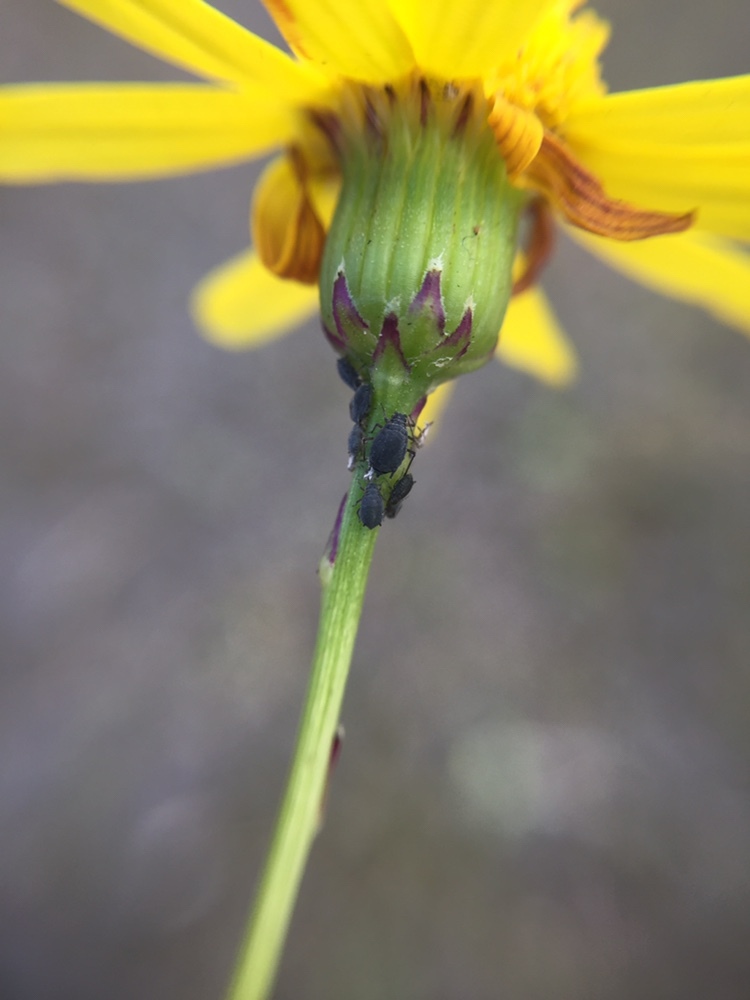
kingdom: Animalia
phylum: Arthropoda
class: Insecta
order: Hemiptera
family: Aphididae
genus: Aphis
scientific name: Aphis lugentis
